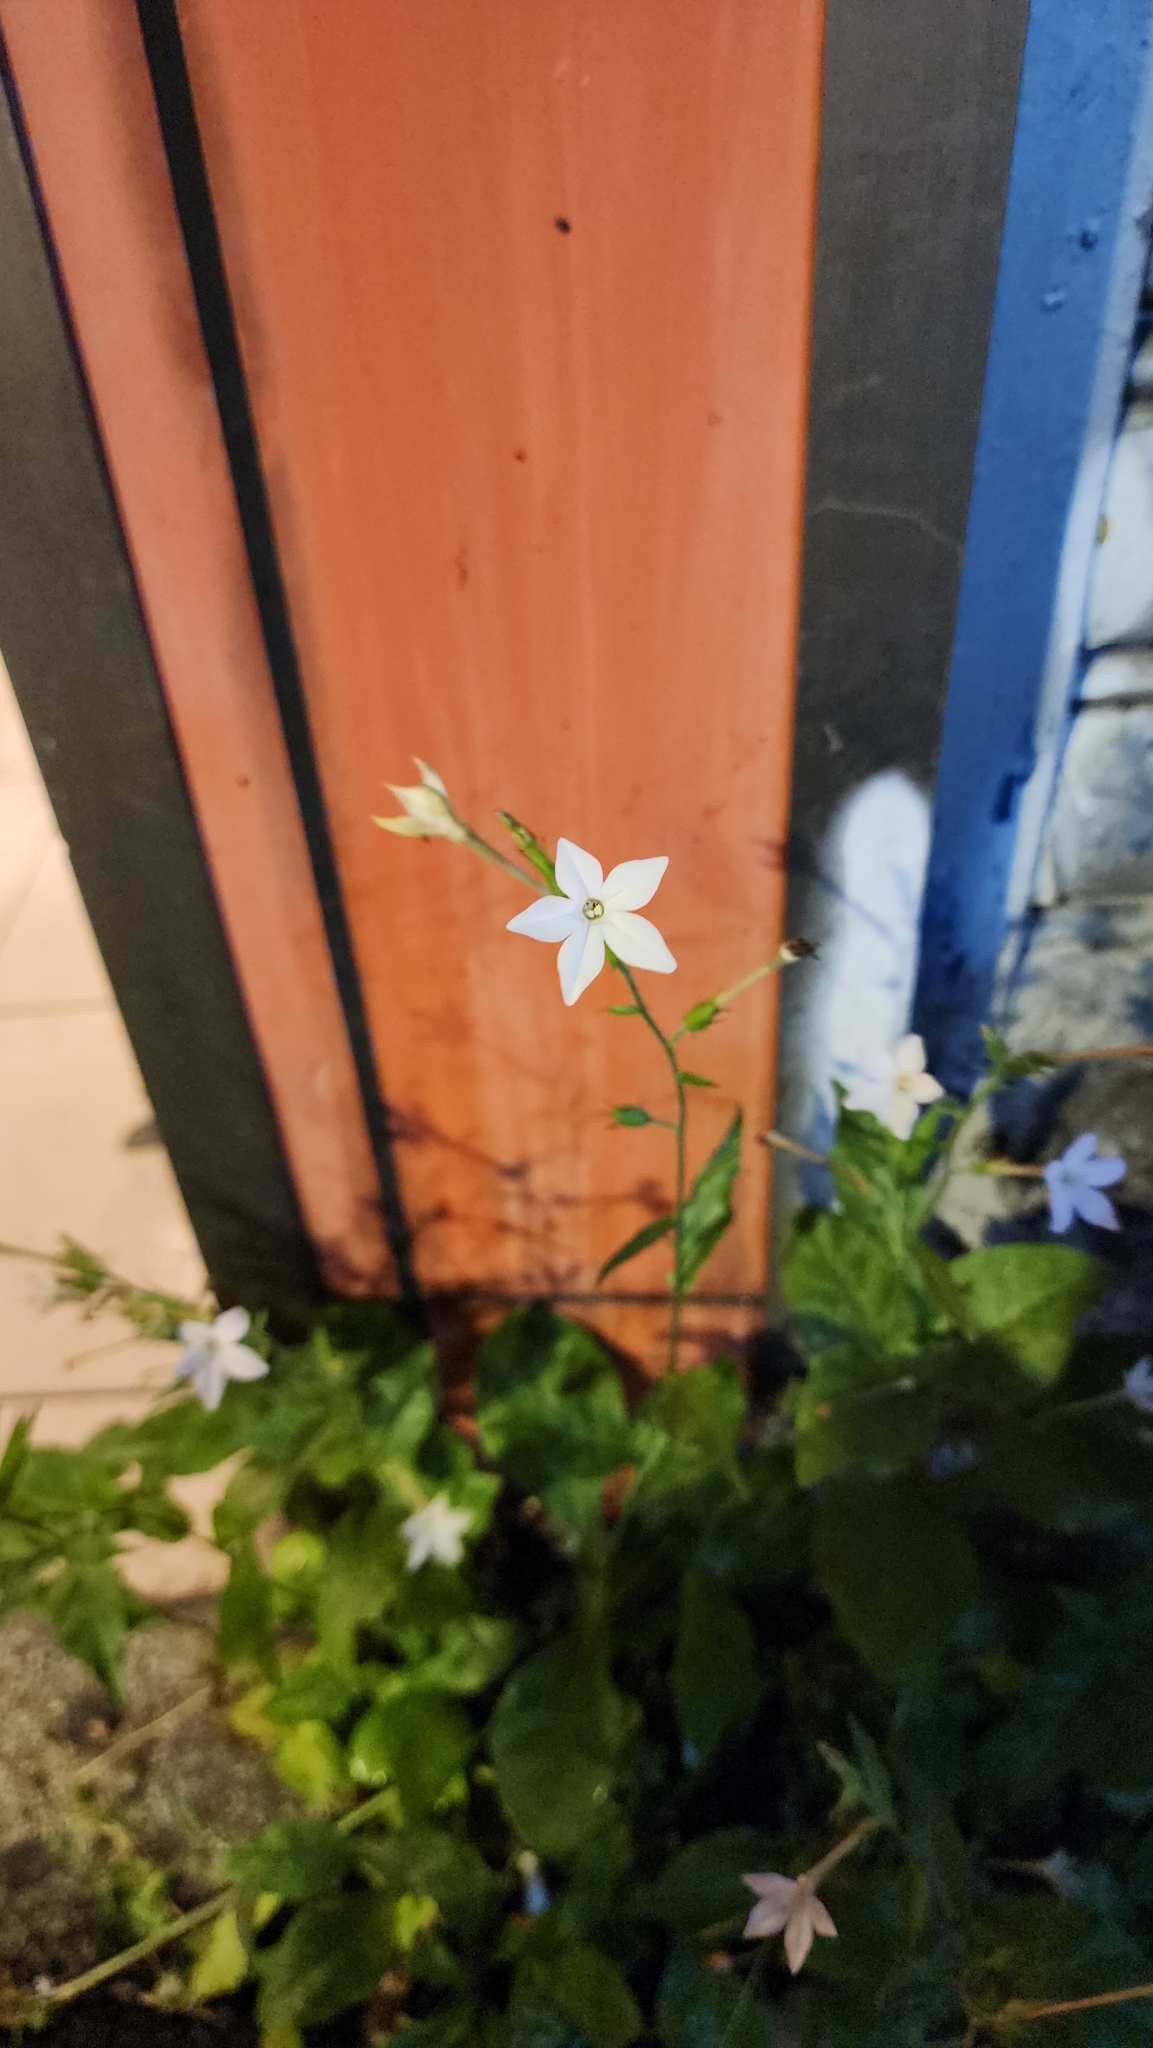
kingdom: Plantae
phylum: Tracheophyta
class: Magnoliopsida
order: Solanales
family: Solanaceae
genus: Nicotiana
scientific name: Nicotiana plumbaginifolia
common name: Tex-mex tobacco
